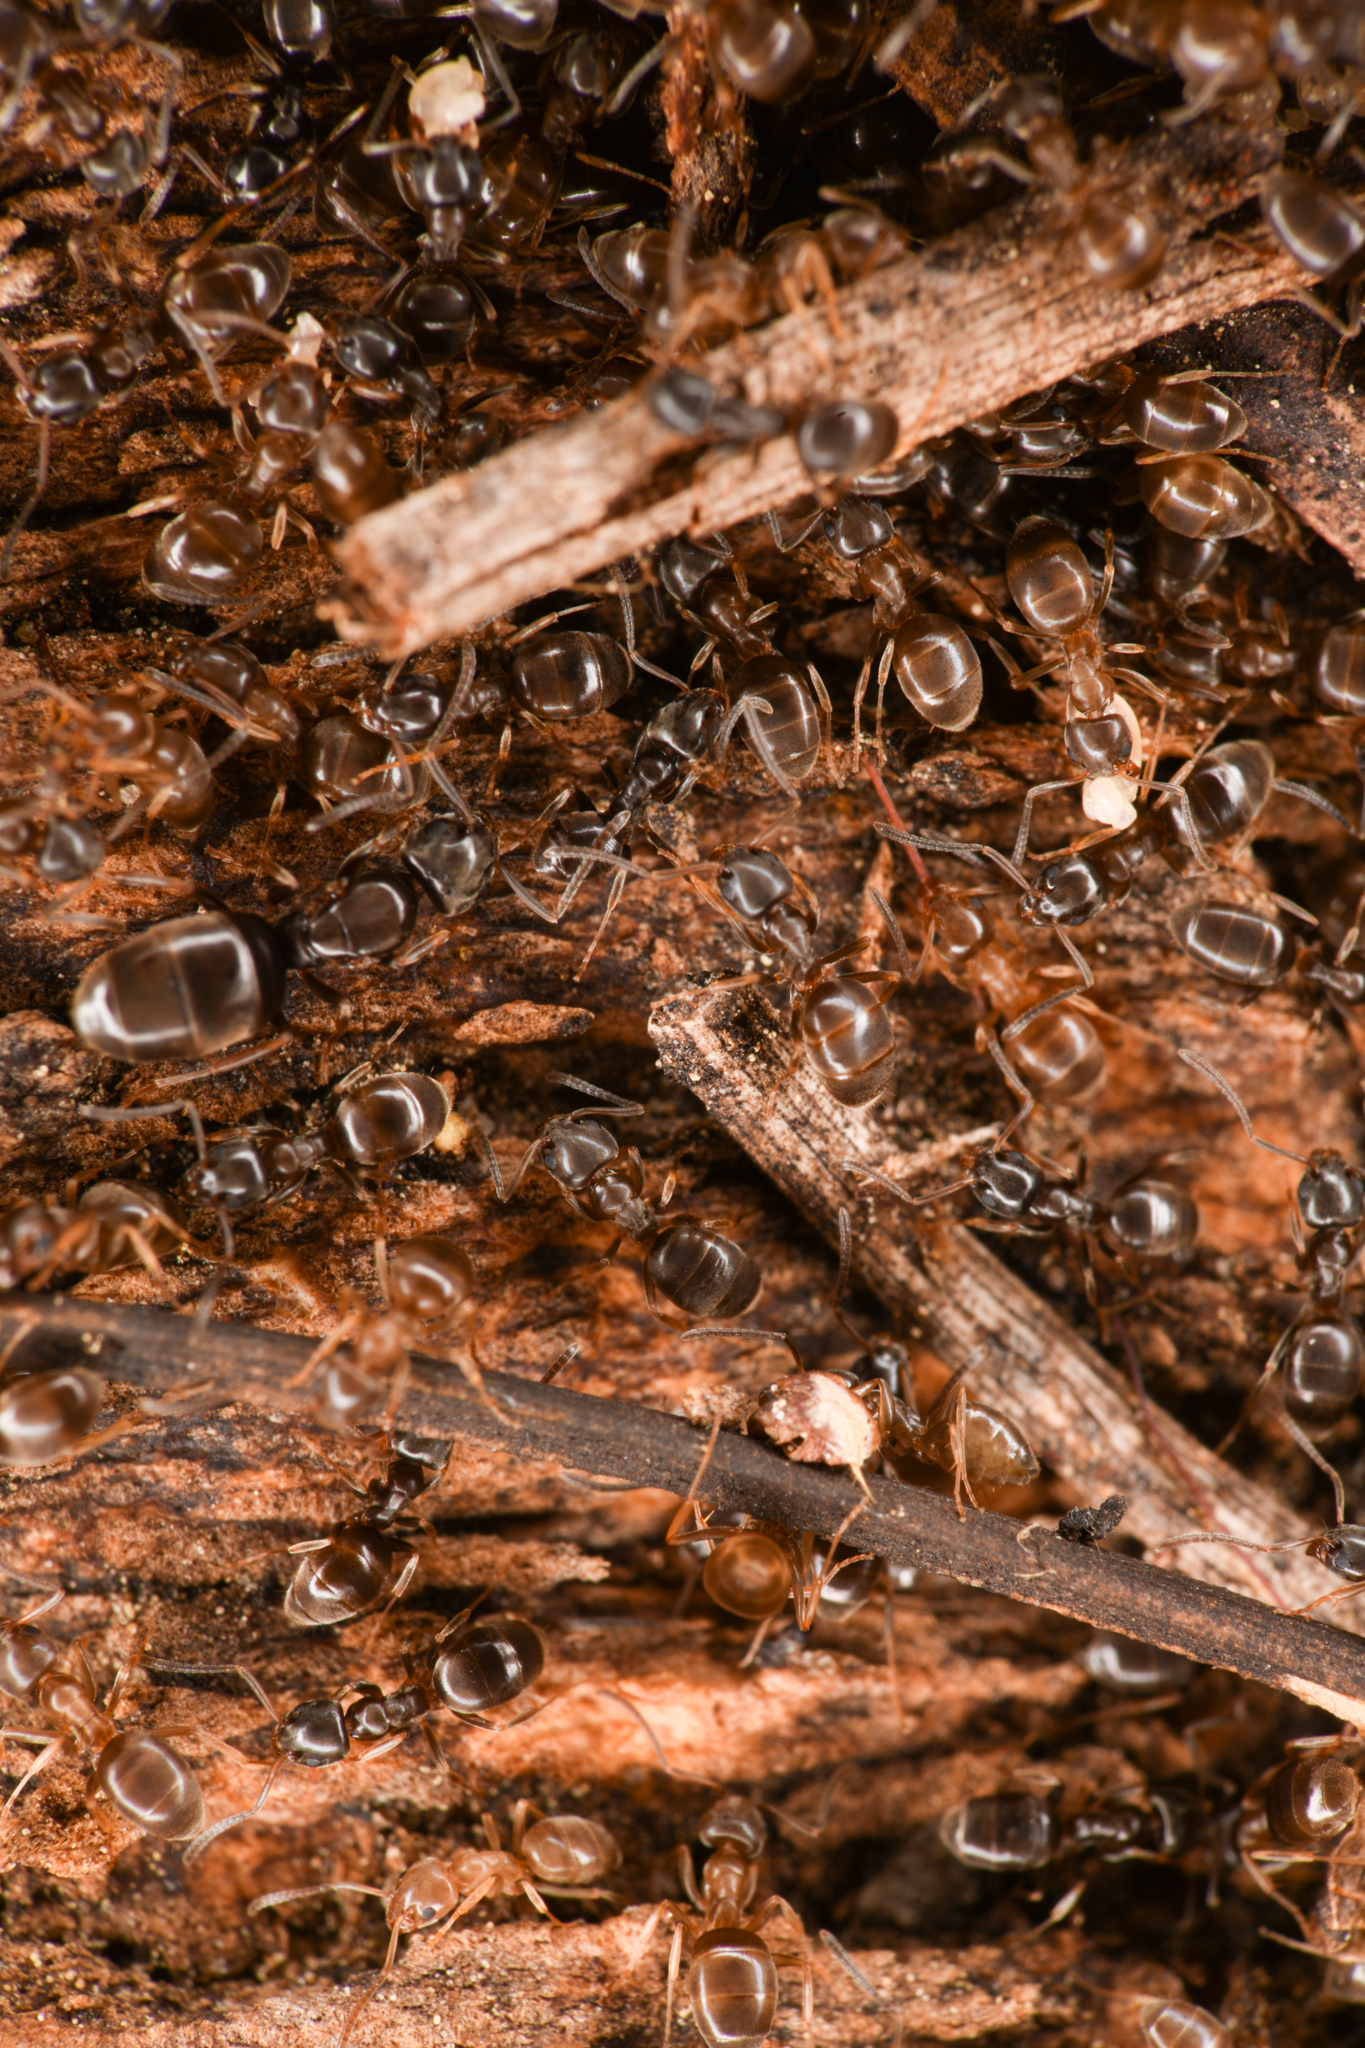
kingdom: Animalia
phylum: Arthropoda
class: Insecta
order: Hymenoptera
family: Formicidae
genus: Tapinoma
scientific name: Tapinoma sessile
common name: Odorous house ant
